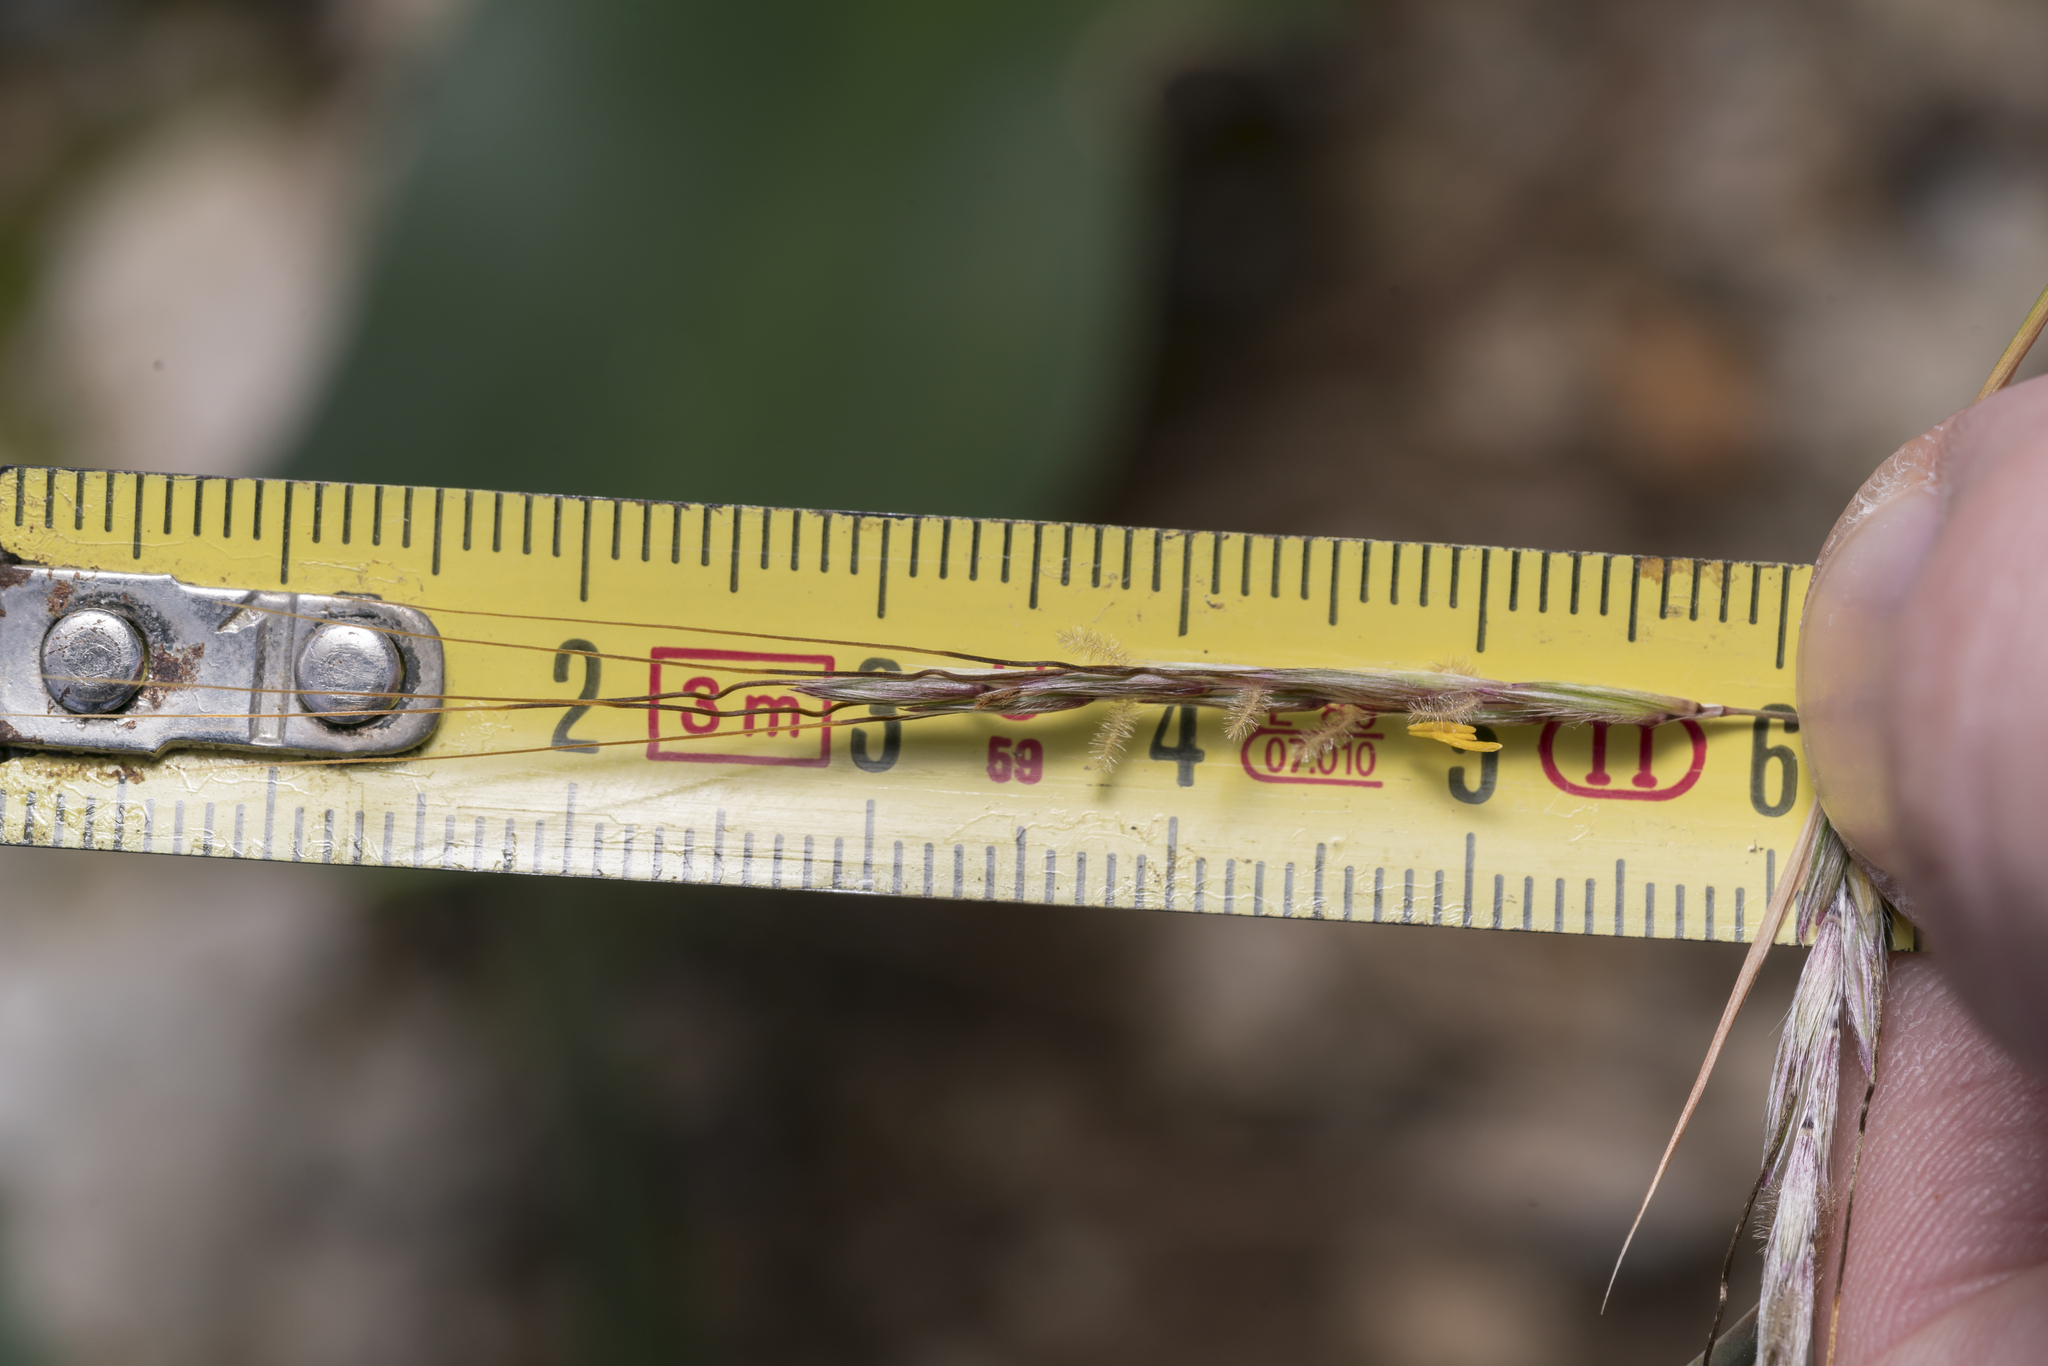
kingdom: Plantae
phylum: Tracheophyta
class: Liliopsida
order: Poales
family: Poaceae
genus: Hyparrhenia
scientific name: Hyparrhenia hirta
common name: Thatching grass
